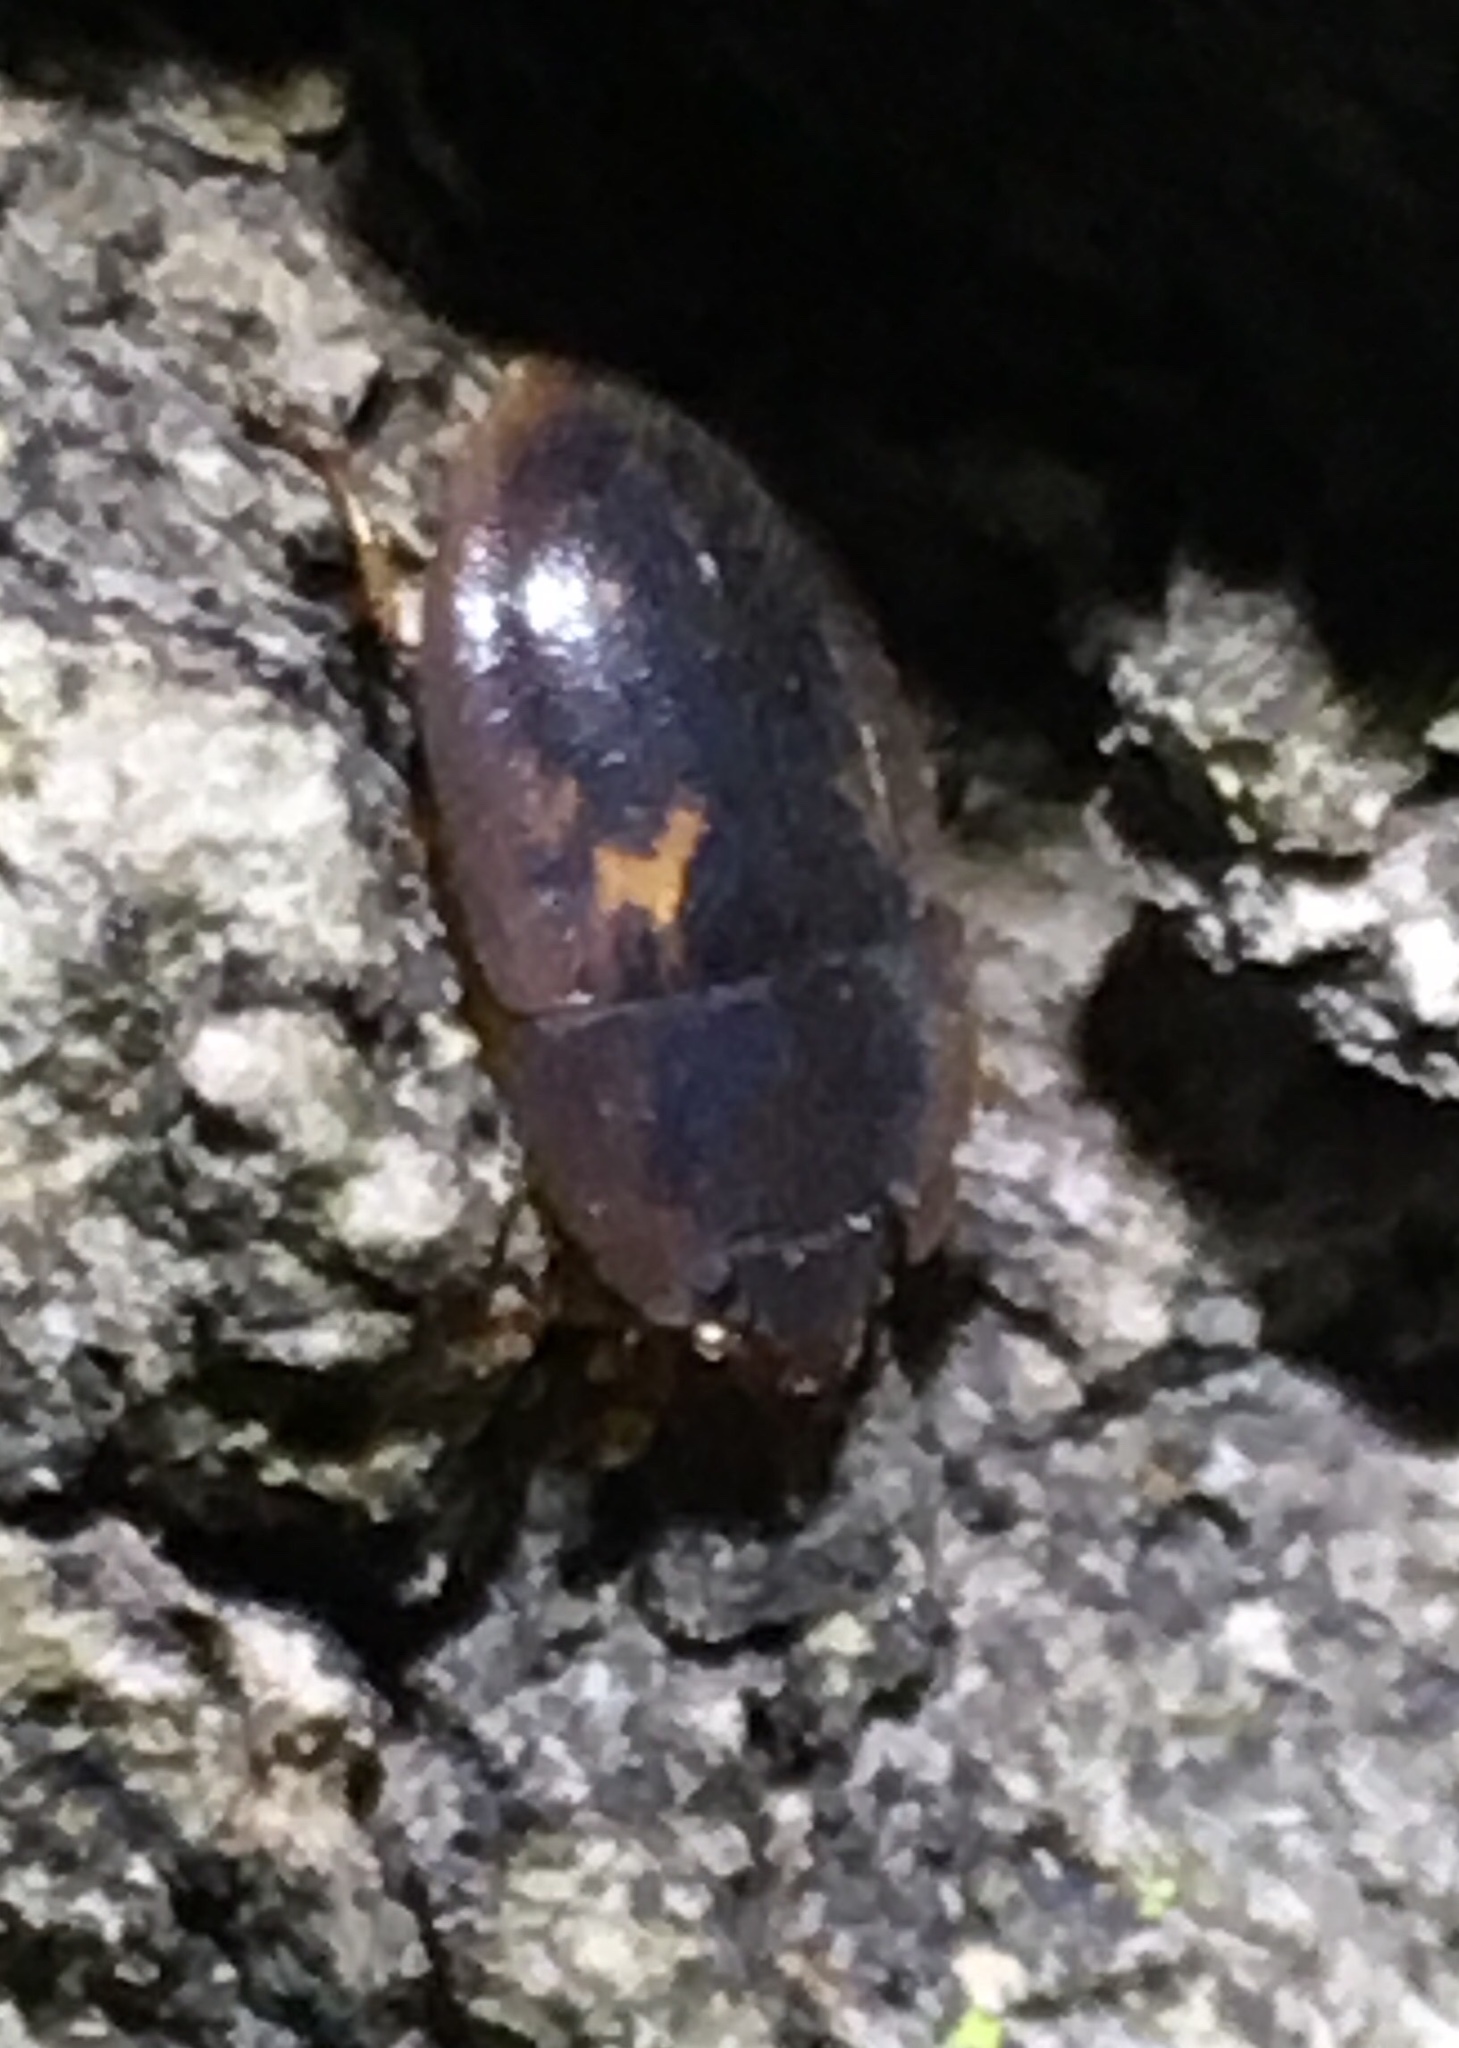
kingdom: Animalia
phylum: Arthropoda
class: Insecta
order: Coleoptera
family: Nitidulidae
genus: Prometopia
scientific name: Prometopia sexmaculata
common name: Six-spotted sap-feeding beetle
